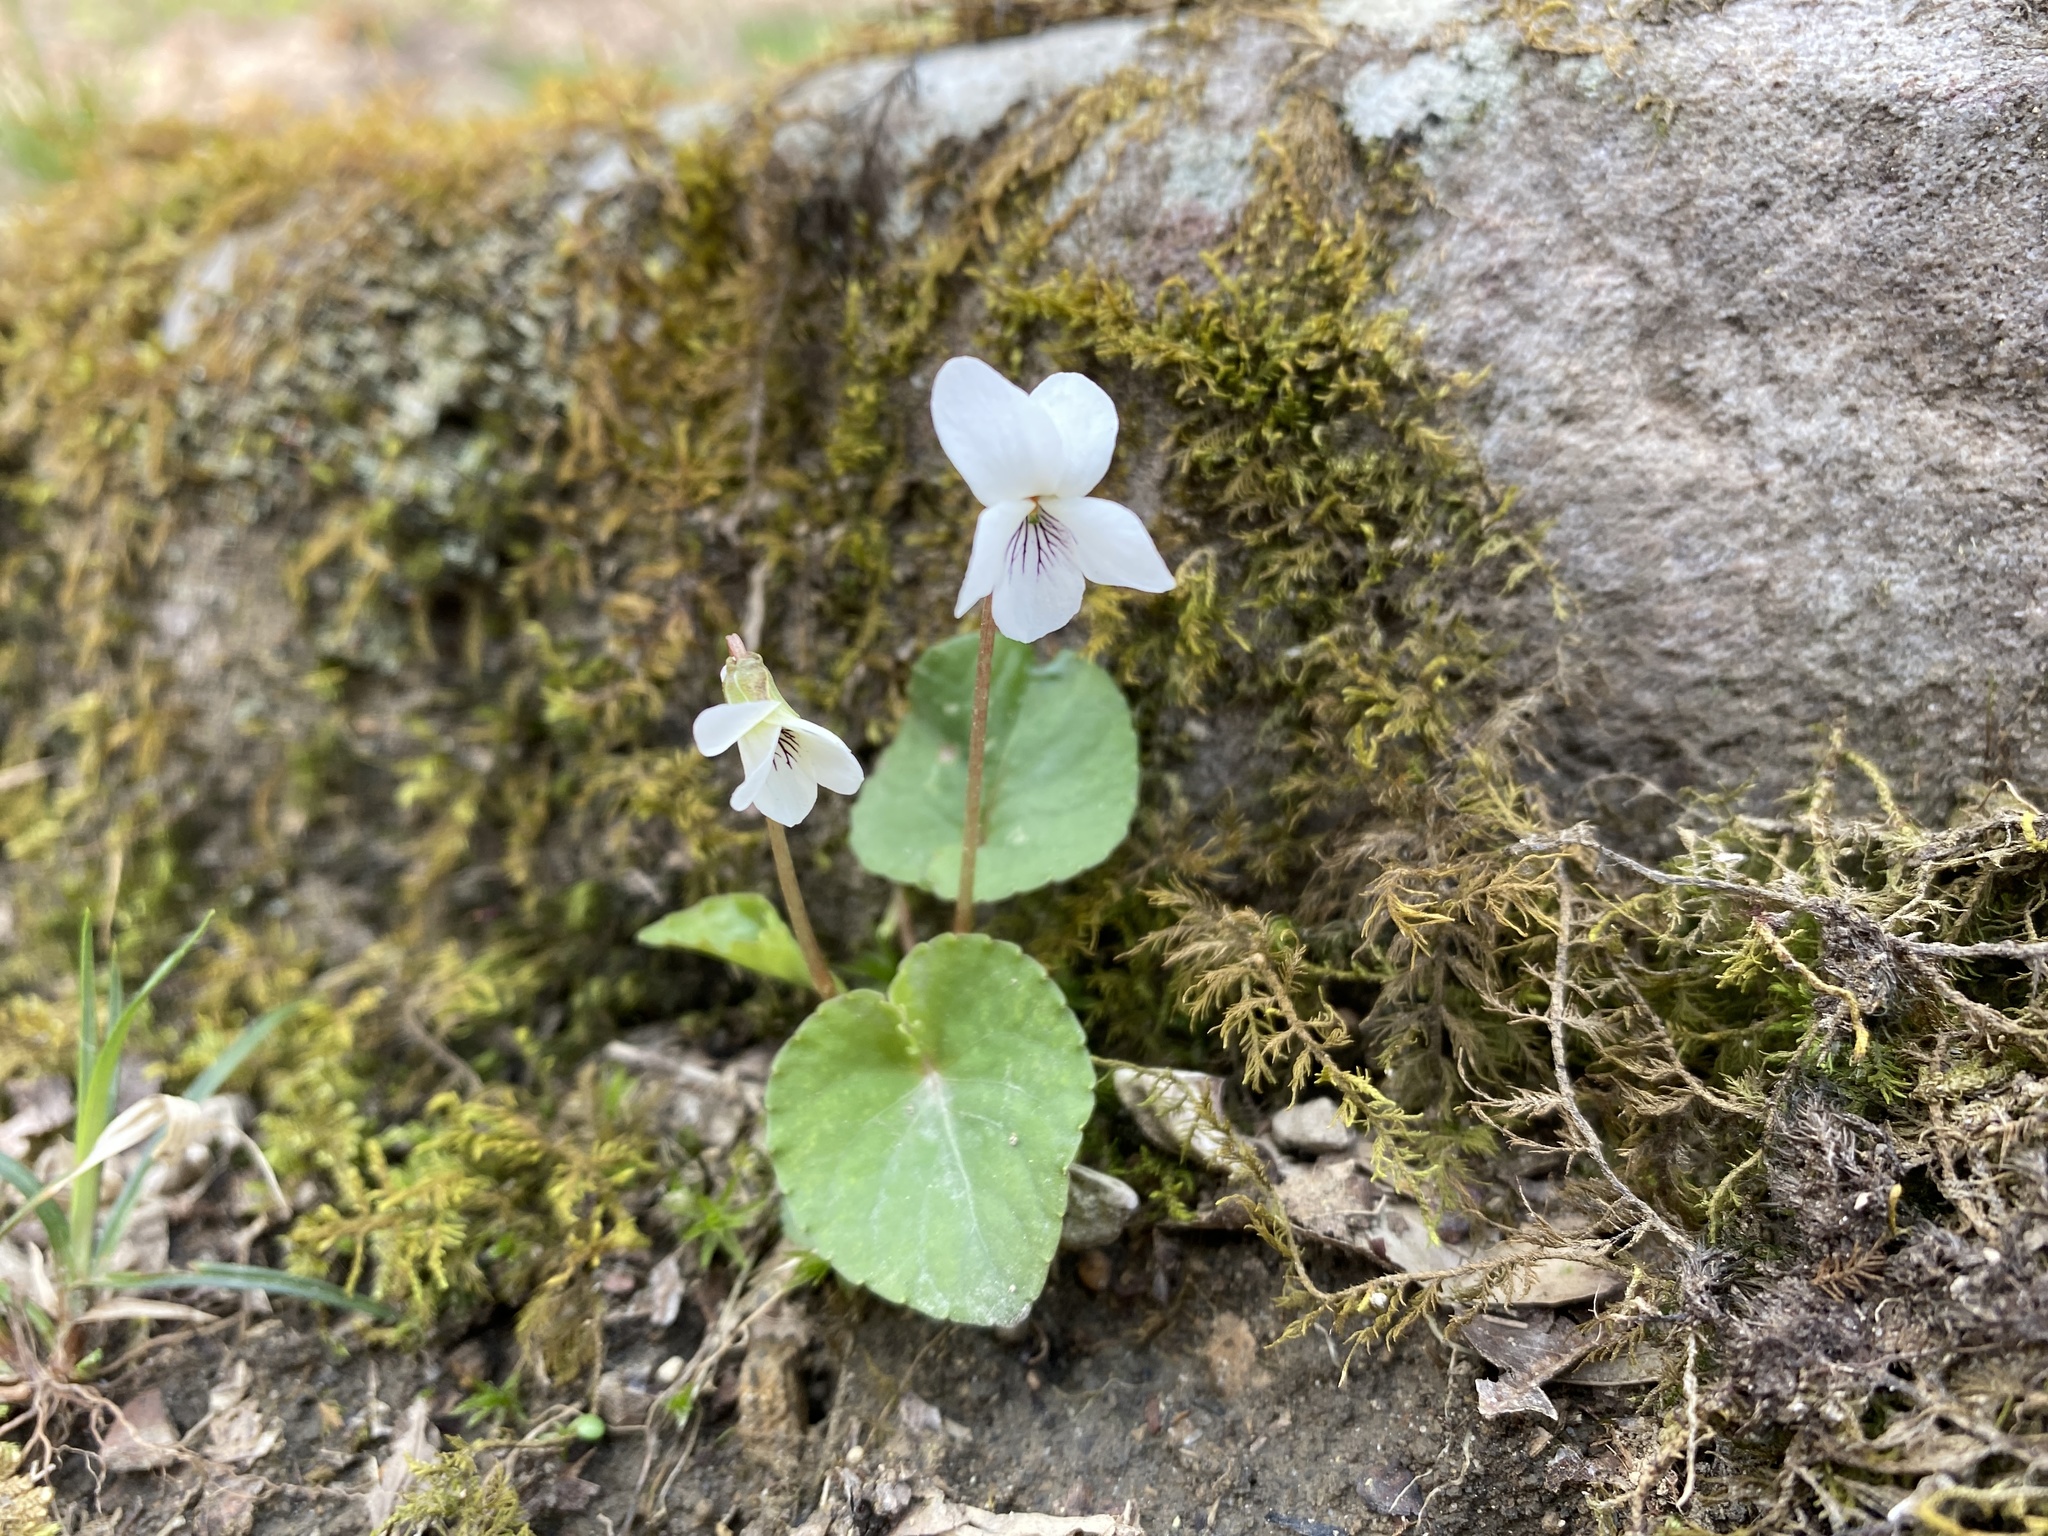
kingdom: Plantae
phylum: Tracheophyta
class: Magnoliopsida
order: Malpighiales
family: Violaceae
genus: Viola
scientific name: Viola blanda
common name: Sweet white violet
